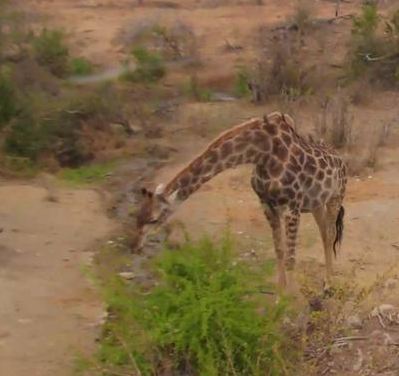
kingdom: Animalia
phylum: Chordata
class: Mammalia
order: Artiodactyla
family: Giraffidae
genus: Giraffa
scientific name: Giraffa giraffa
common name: Southern giraffe
